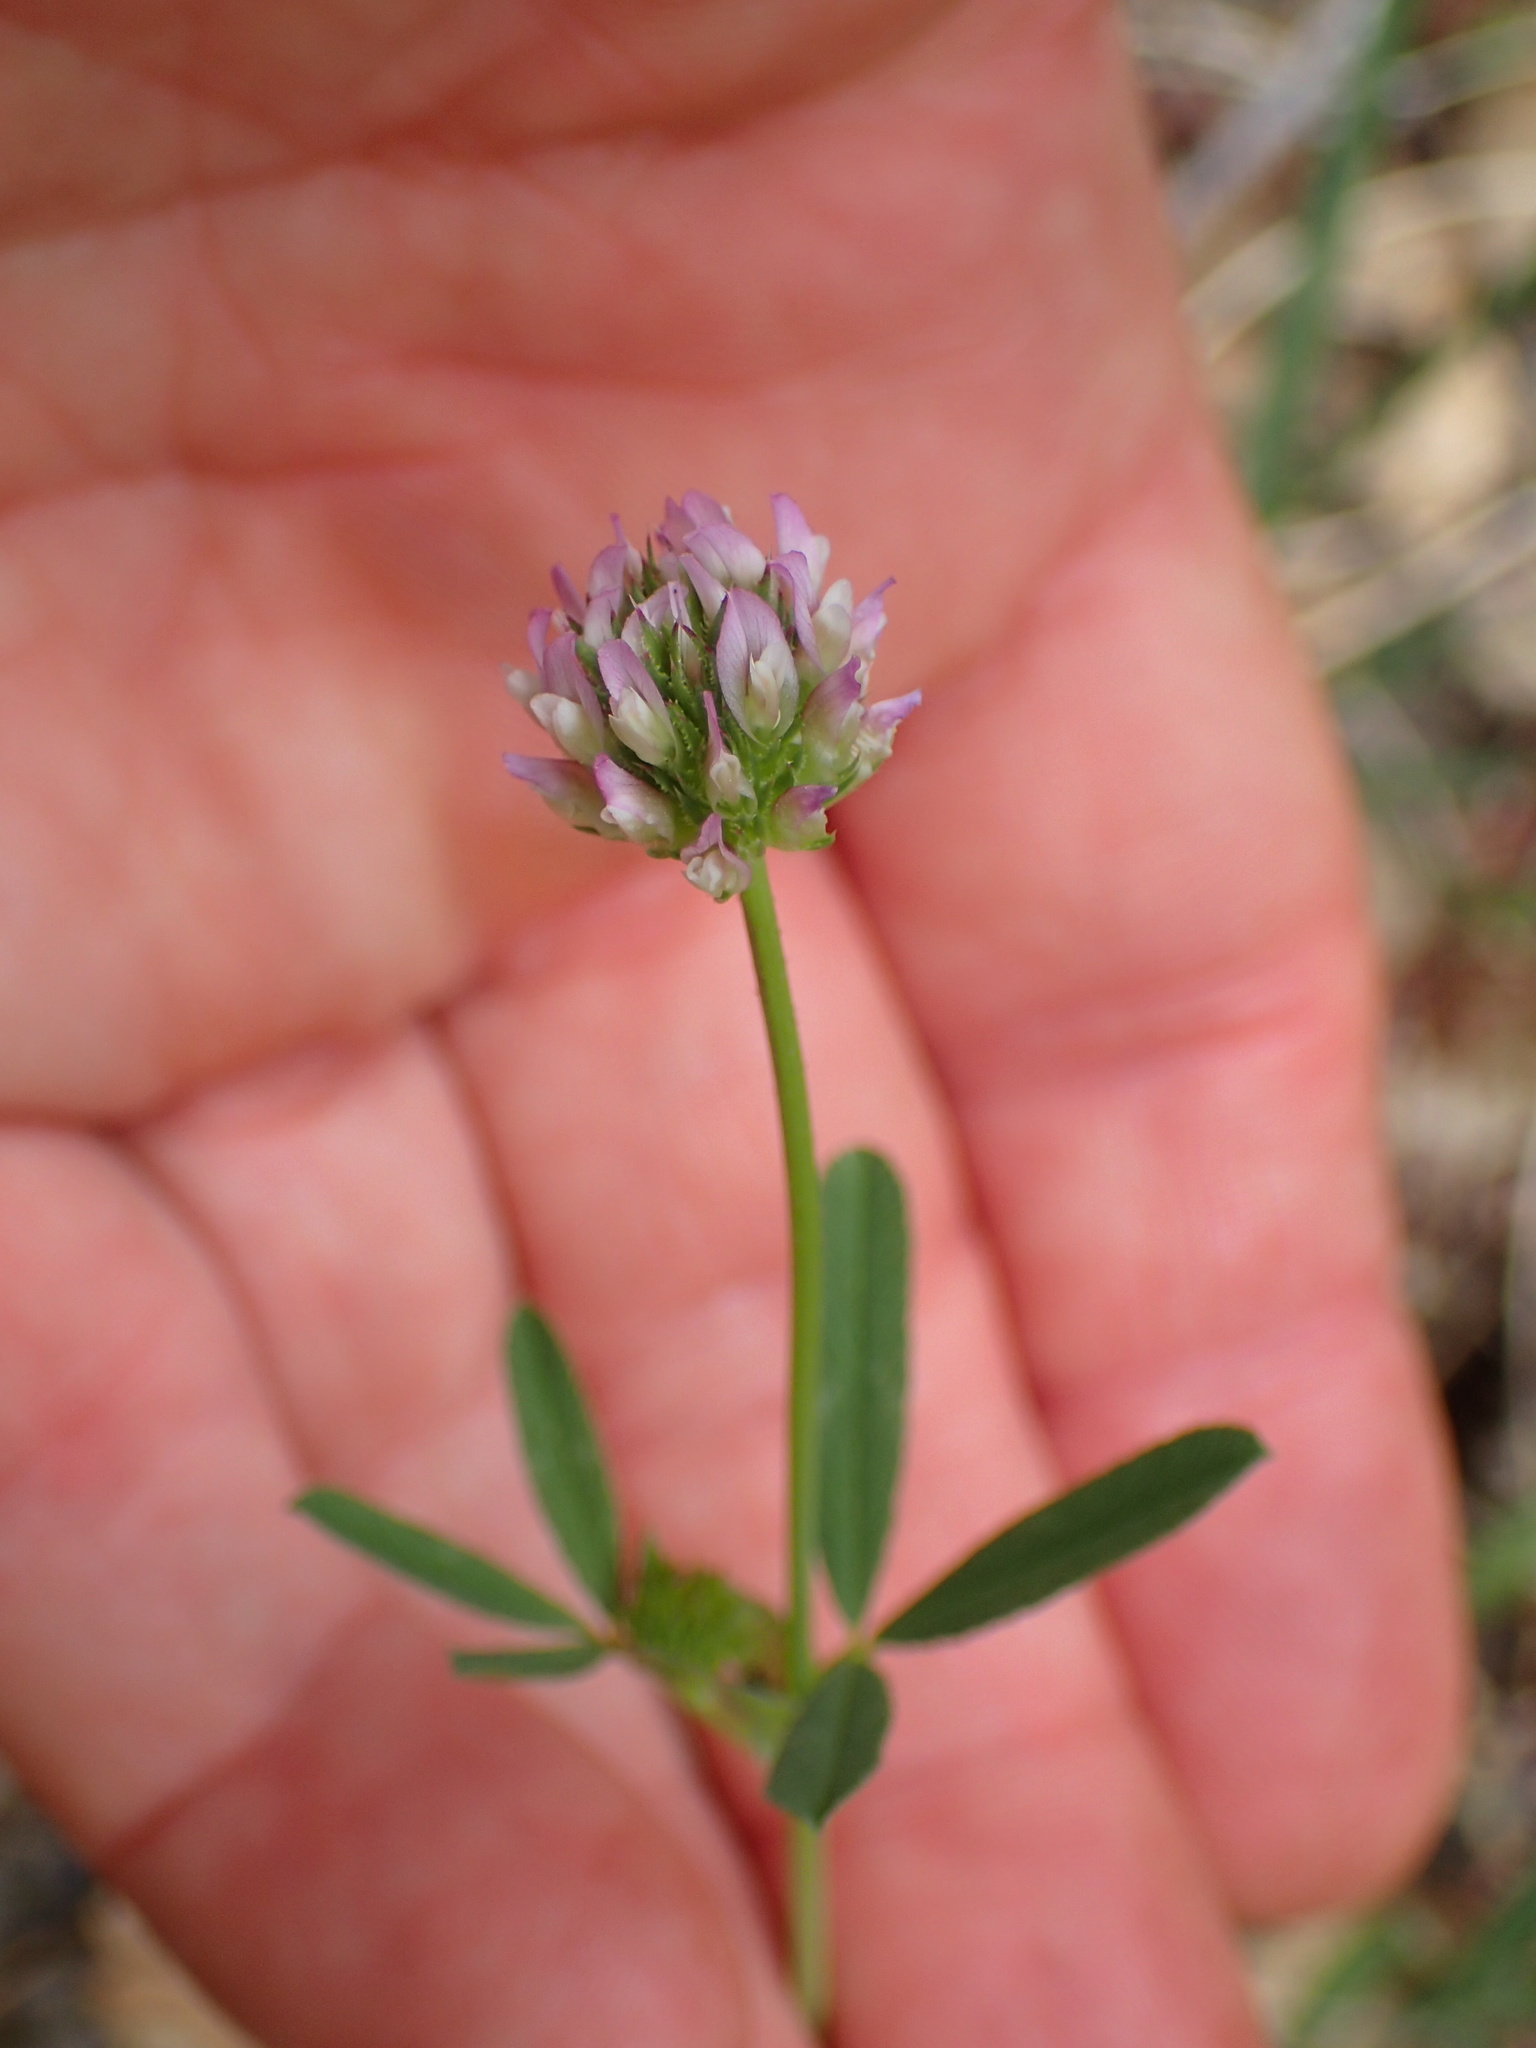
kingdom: Plantae
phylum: Tracheophyta
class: Magnoliopsida
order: Fabales
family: Fabaceae
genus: Trifolium
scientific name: Trifolium ciliolatum
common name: Foothill clover
